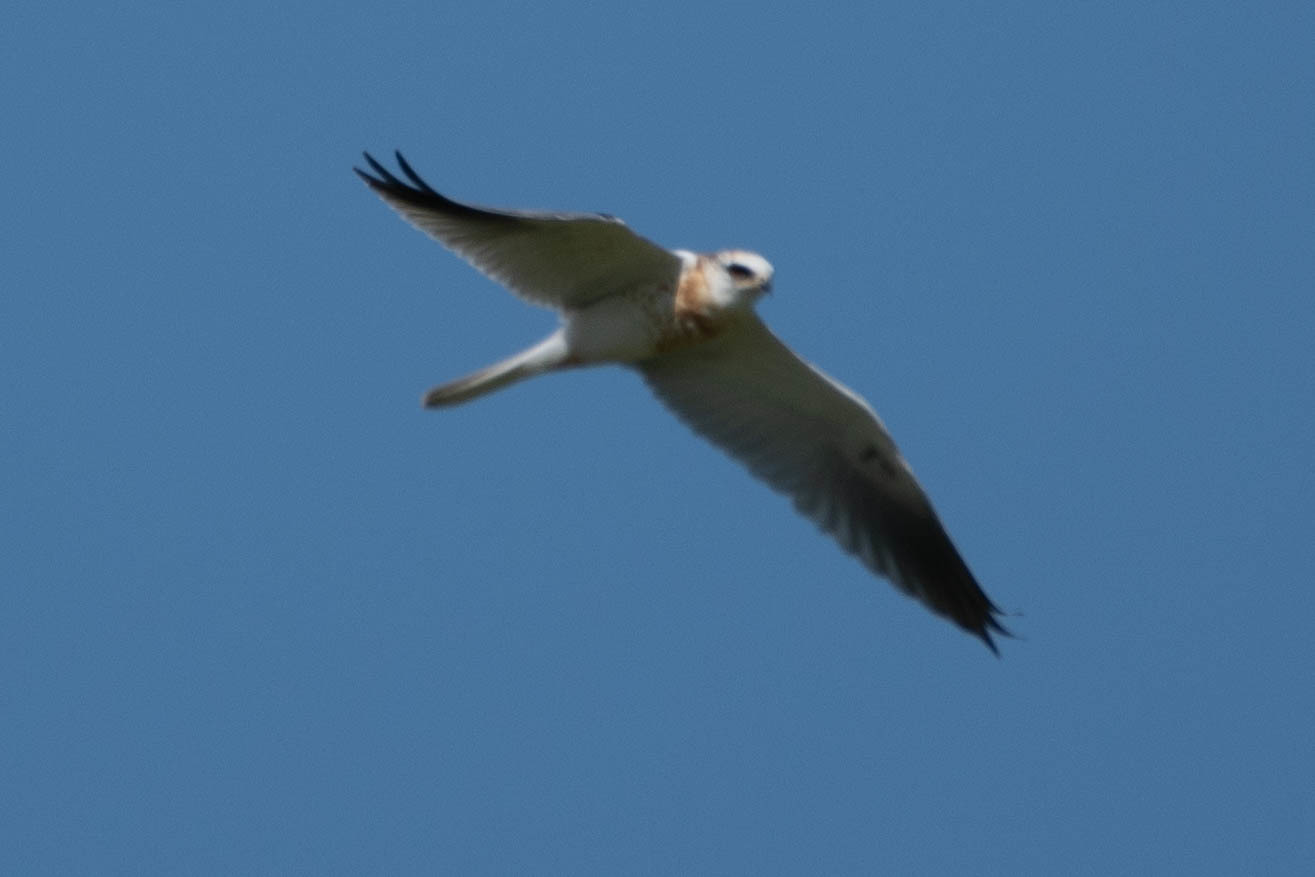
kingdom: Animalia
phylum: Chordata
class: Aves
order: Accipitriformes
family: Accipitridae
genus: Elanus
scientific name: Elanus leucurus
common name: White-tailed kite
